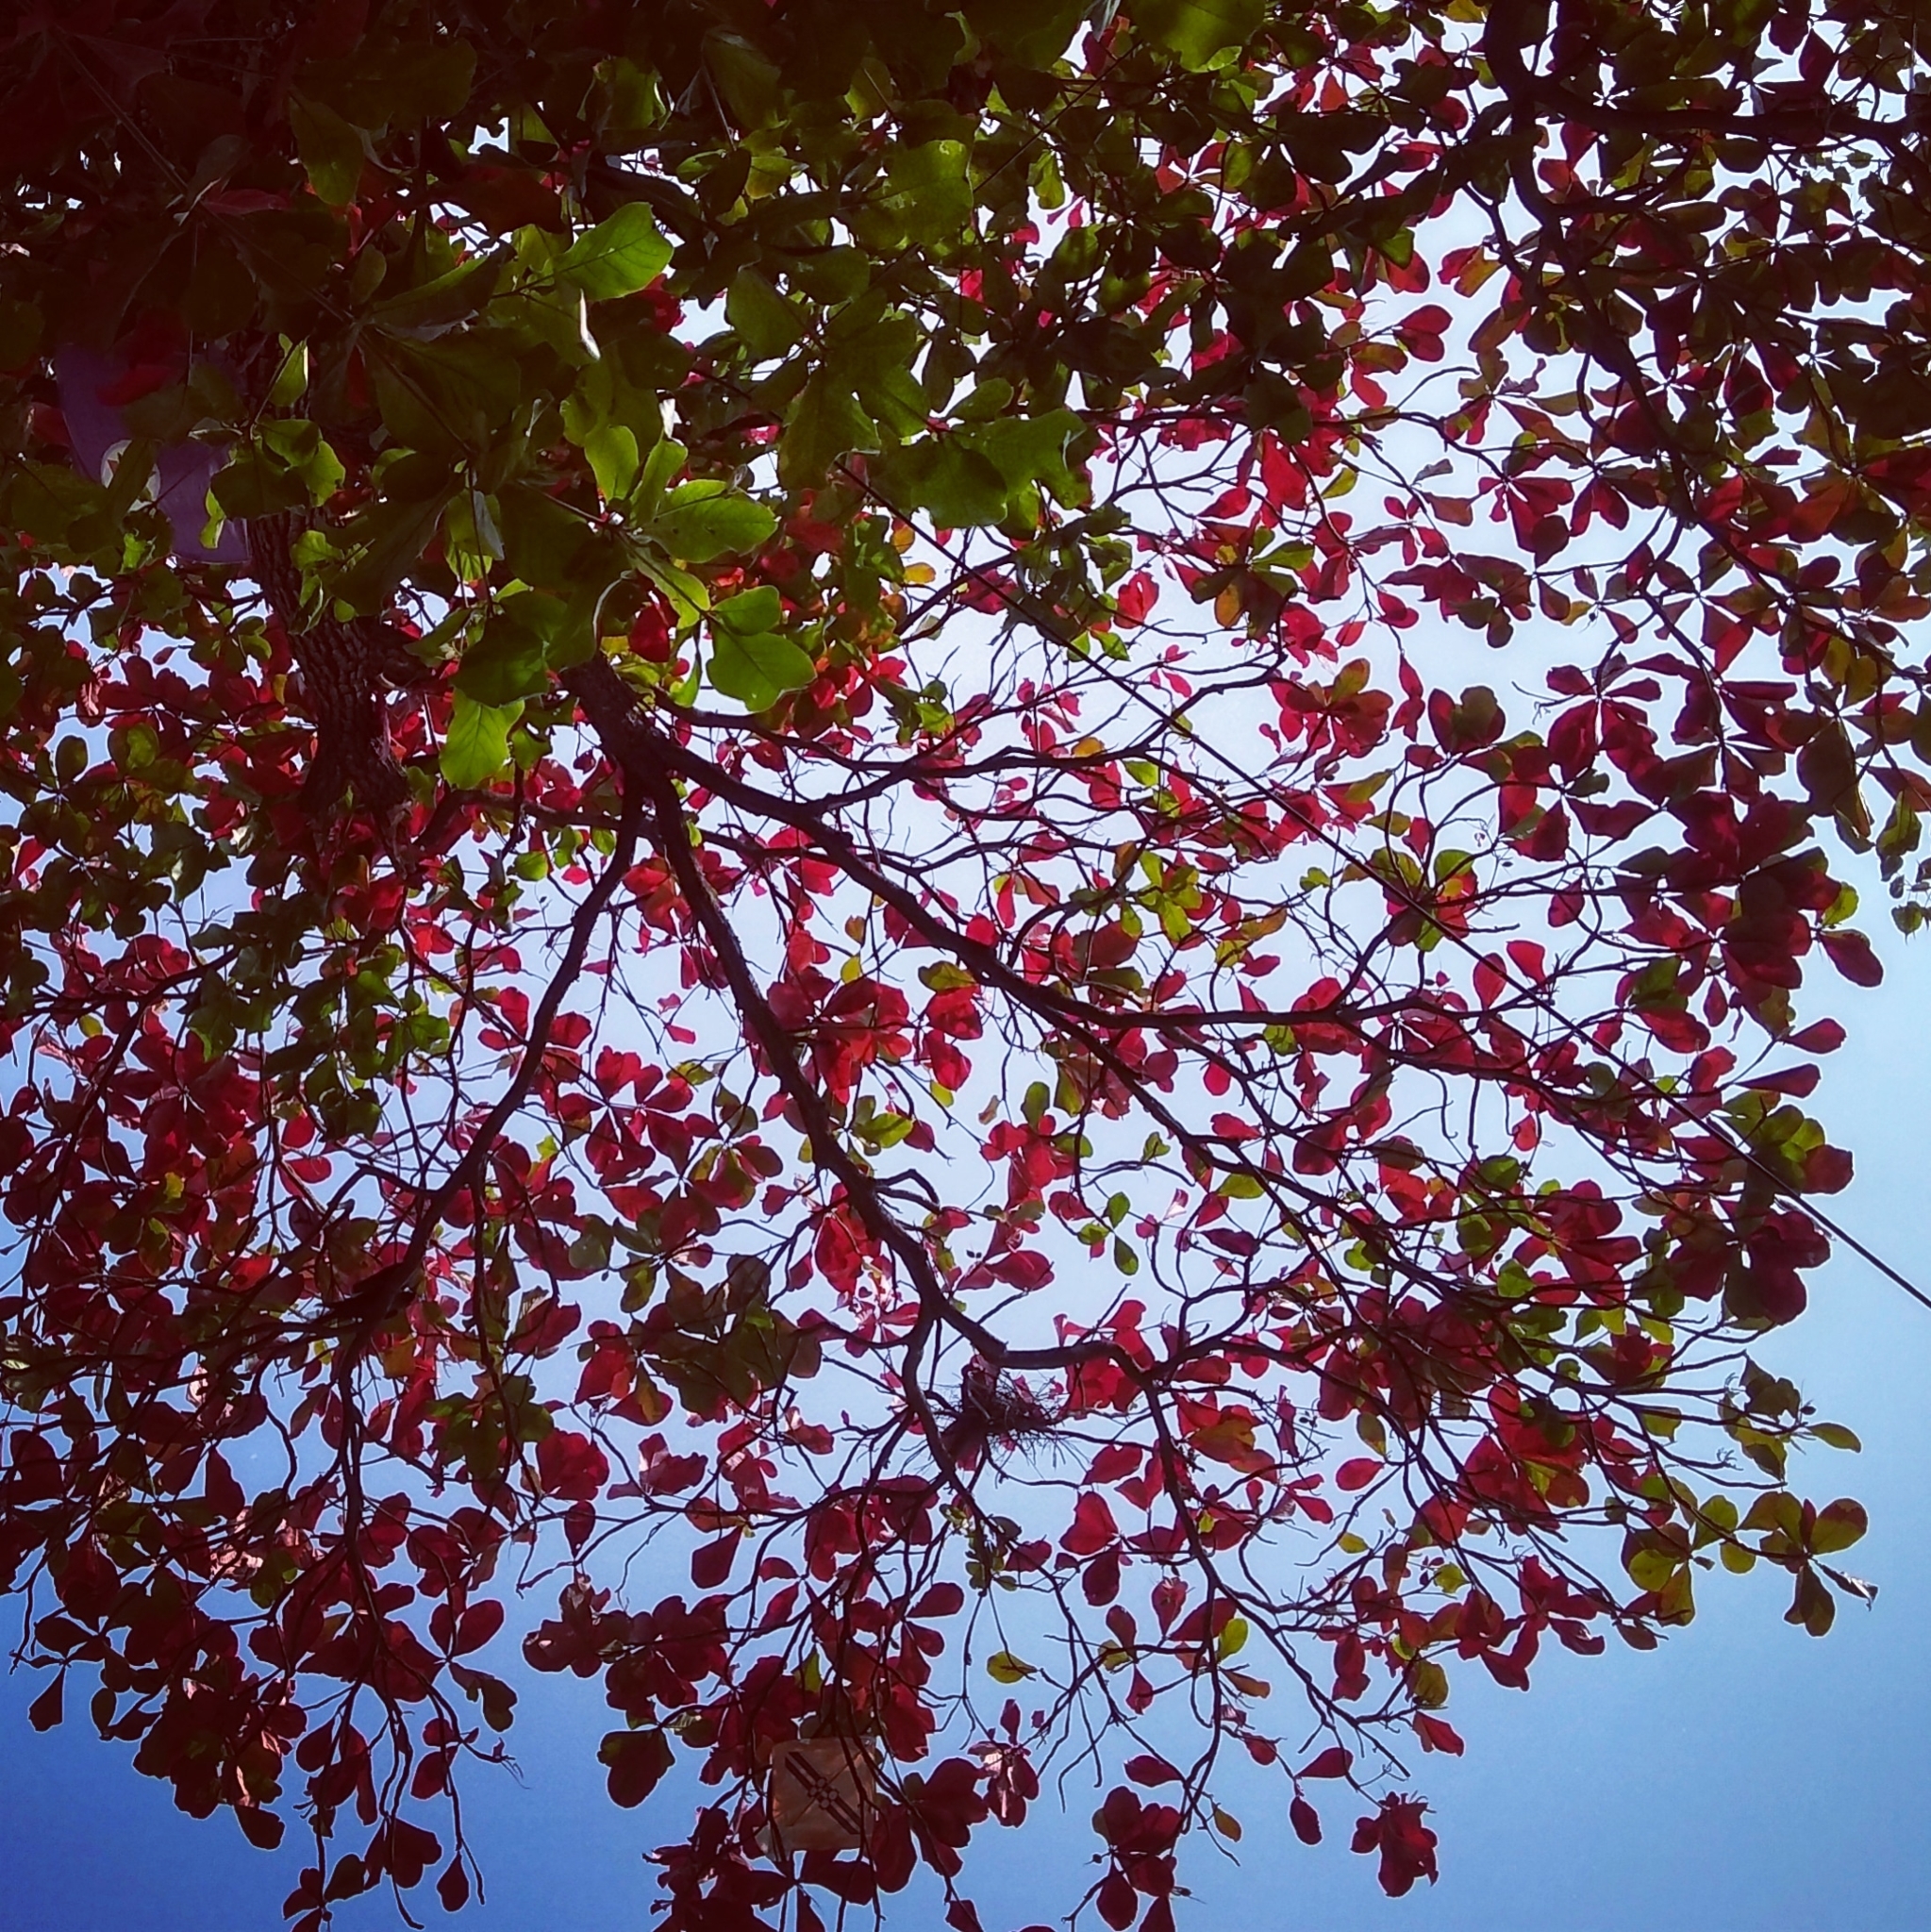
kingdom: Plantae
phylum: Tracheophyta
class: Magnoliopsida
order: Myrtales
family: Combretaceae
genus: Terminalia
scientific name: Terminalia catappa
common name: Tropical almond
